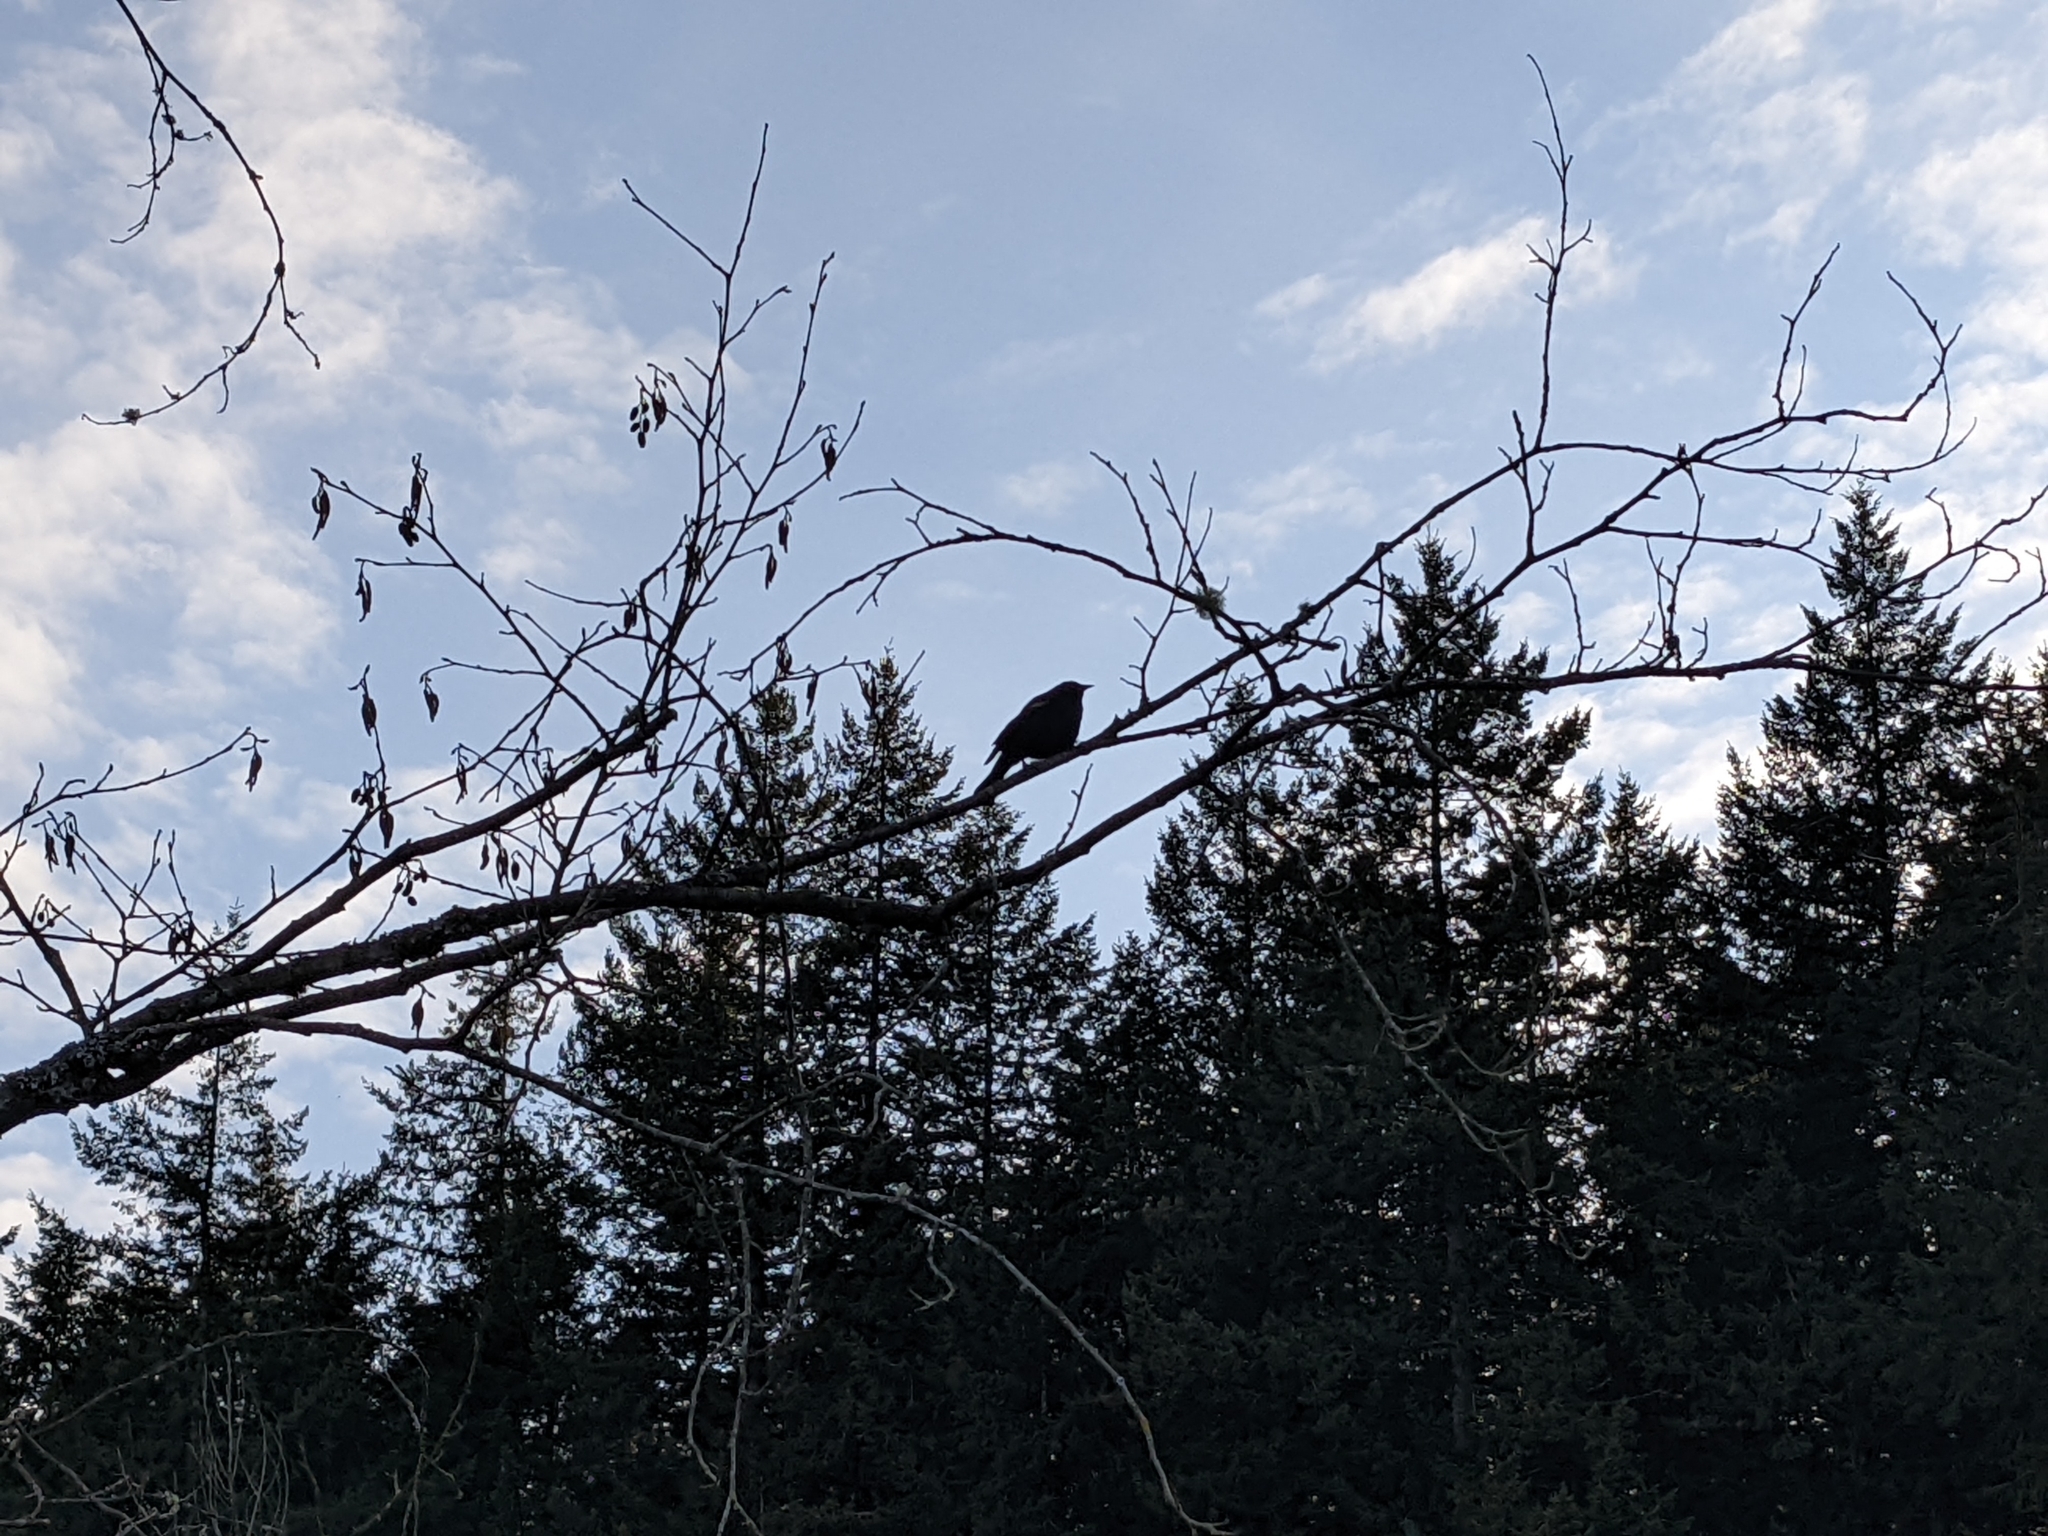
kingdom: Animalia
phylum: Chordata
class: Aves
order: Passeriformes
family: Icteridae
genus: Agelaius
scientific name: Agelaius phoeniceus
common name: Red-winged blackbird
